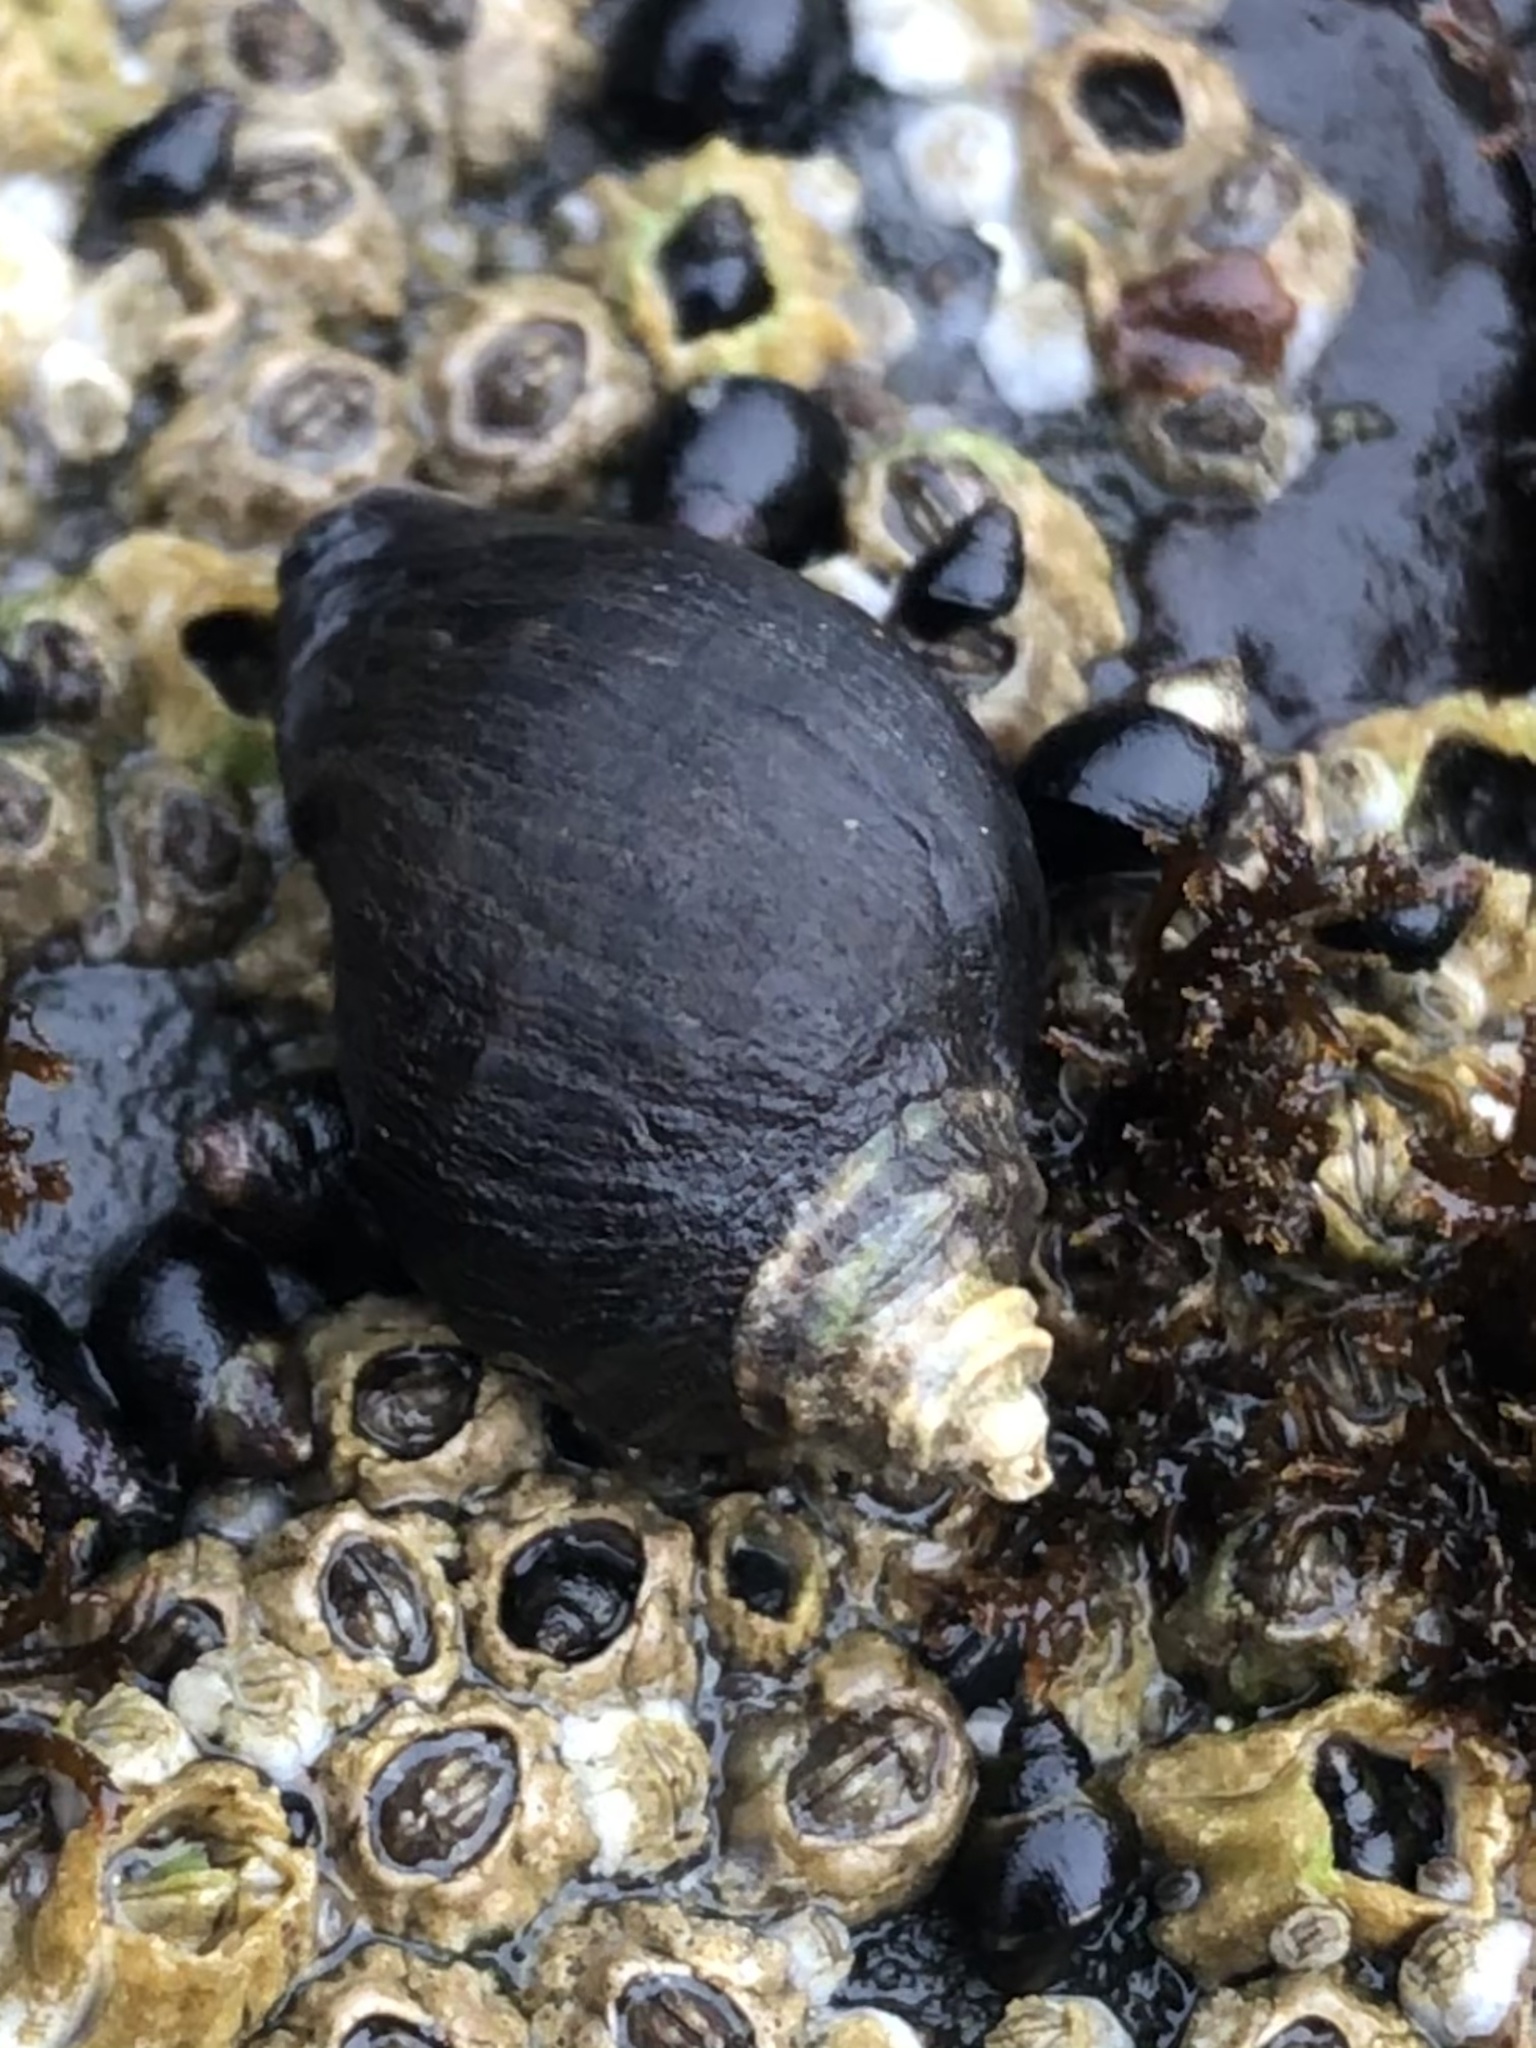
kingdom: Animalia
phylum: Mollusca
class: Gastropoda
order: Neogastropoda
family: Muricidae
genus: Nucella
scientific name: Nucella ostrina
